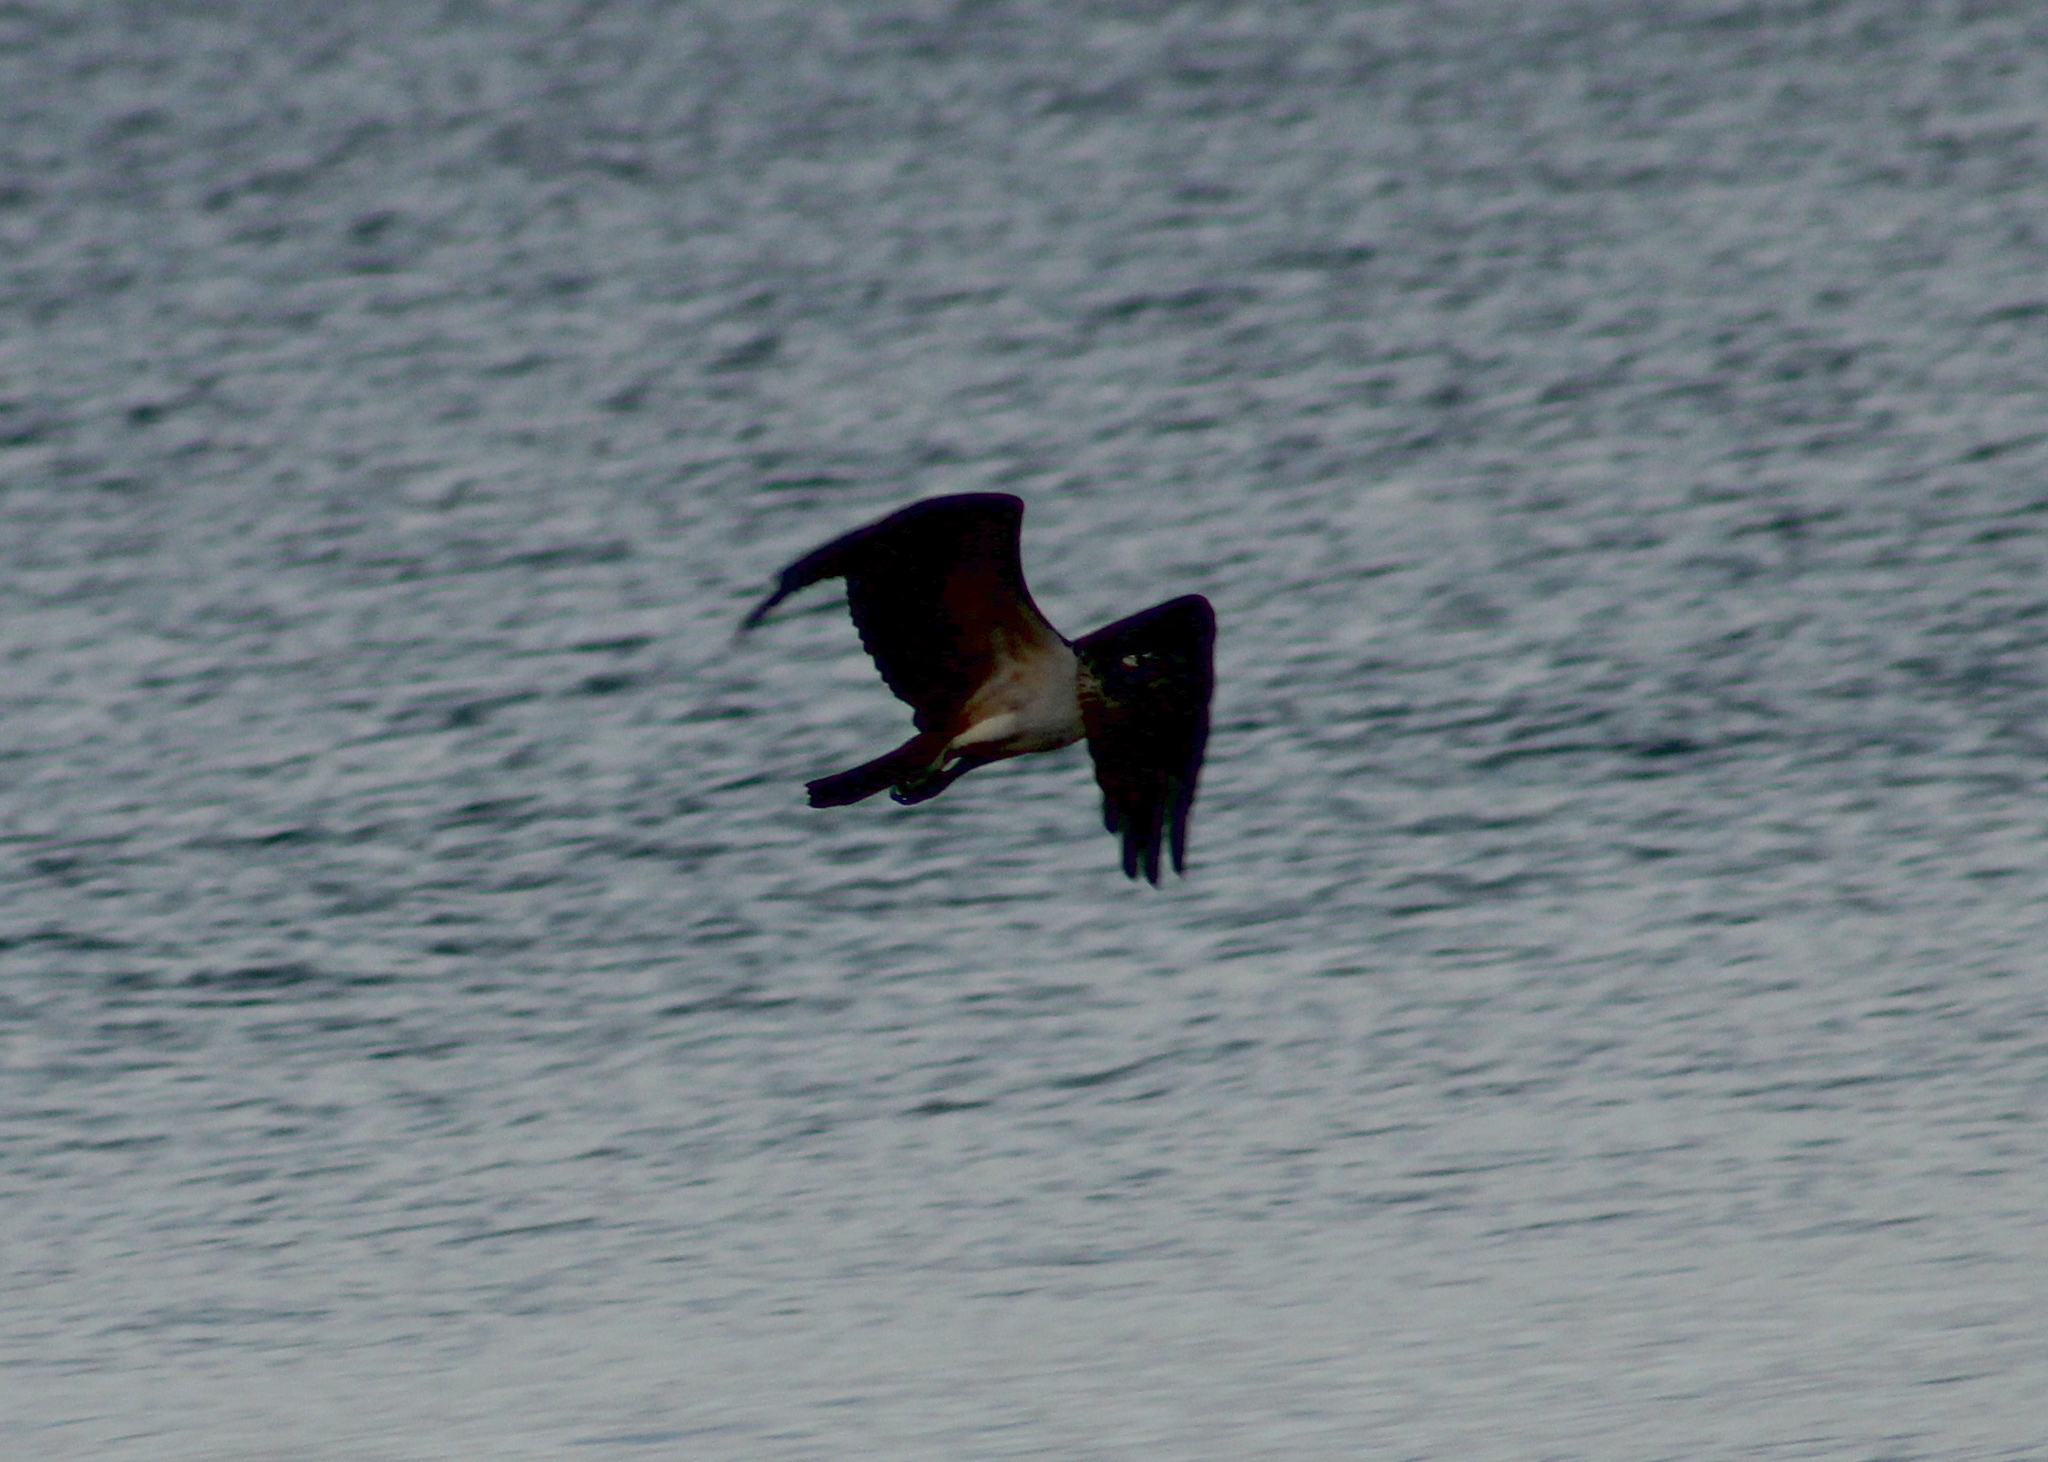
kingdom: Animalia
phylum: Chordata
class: Aves
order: Accipitriformes
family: Pandionidae
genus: Pandion
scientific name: Pandion haliaetus
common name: Osprey
